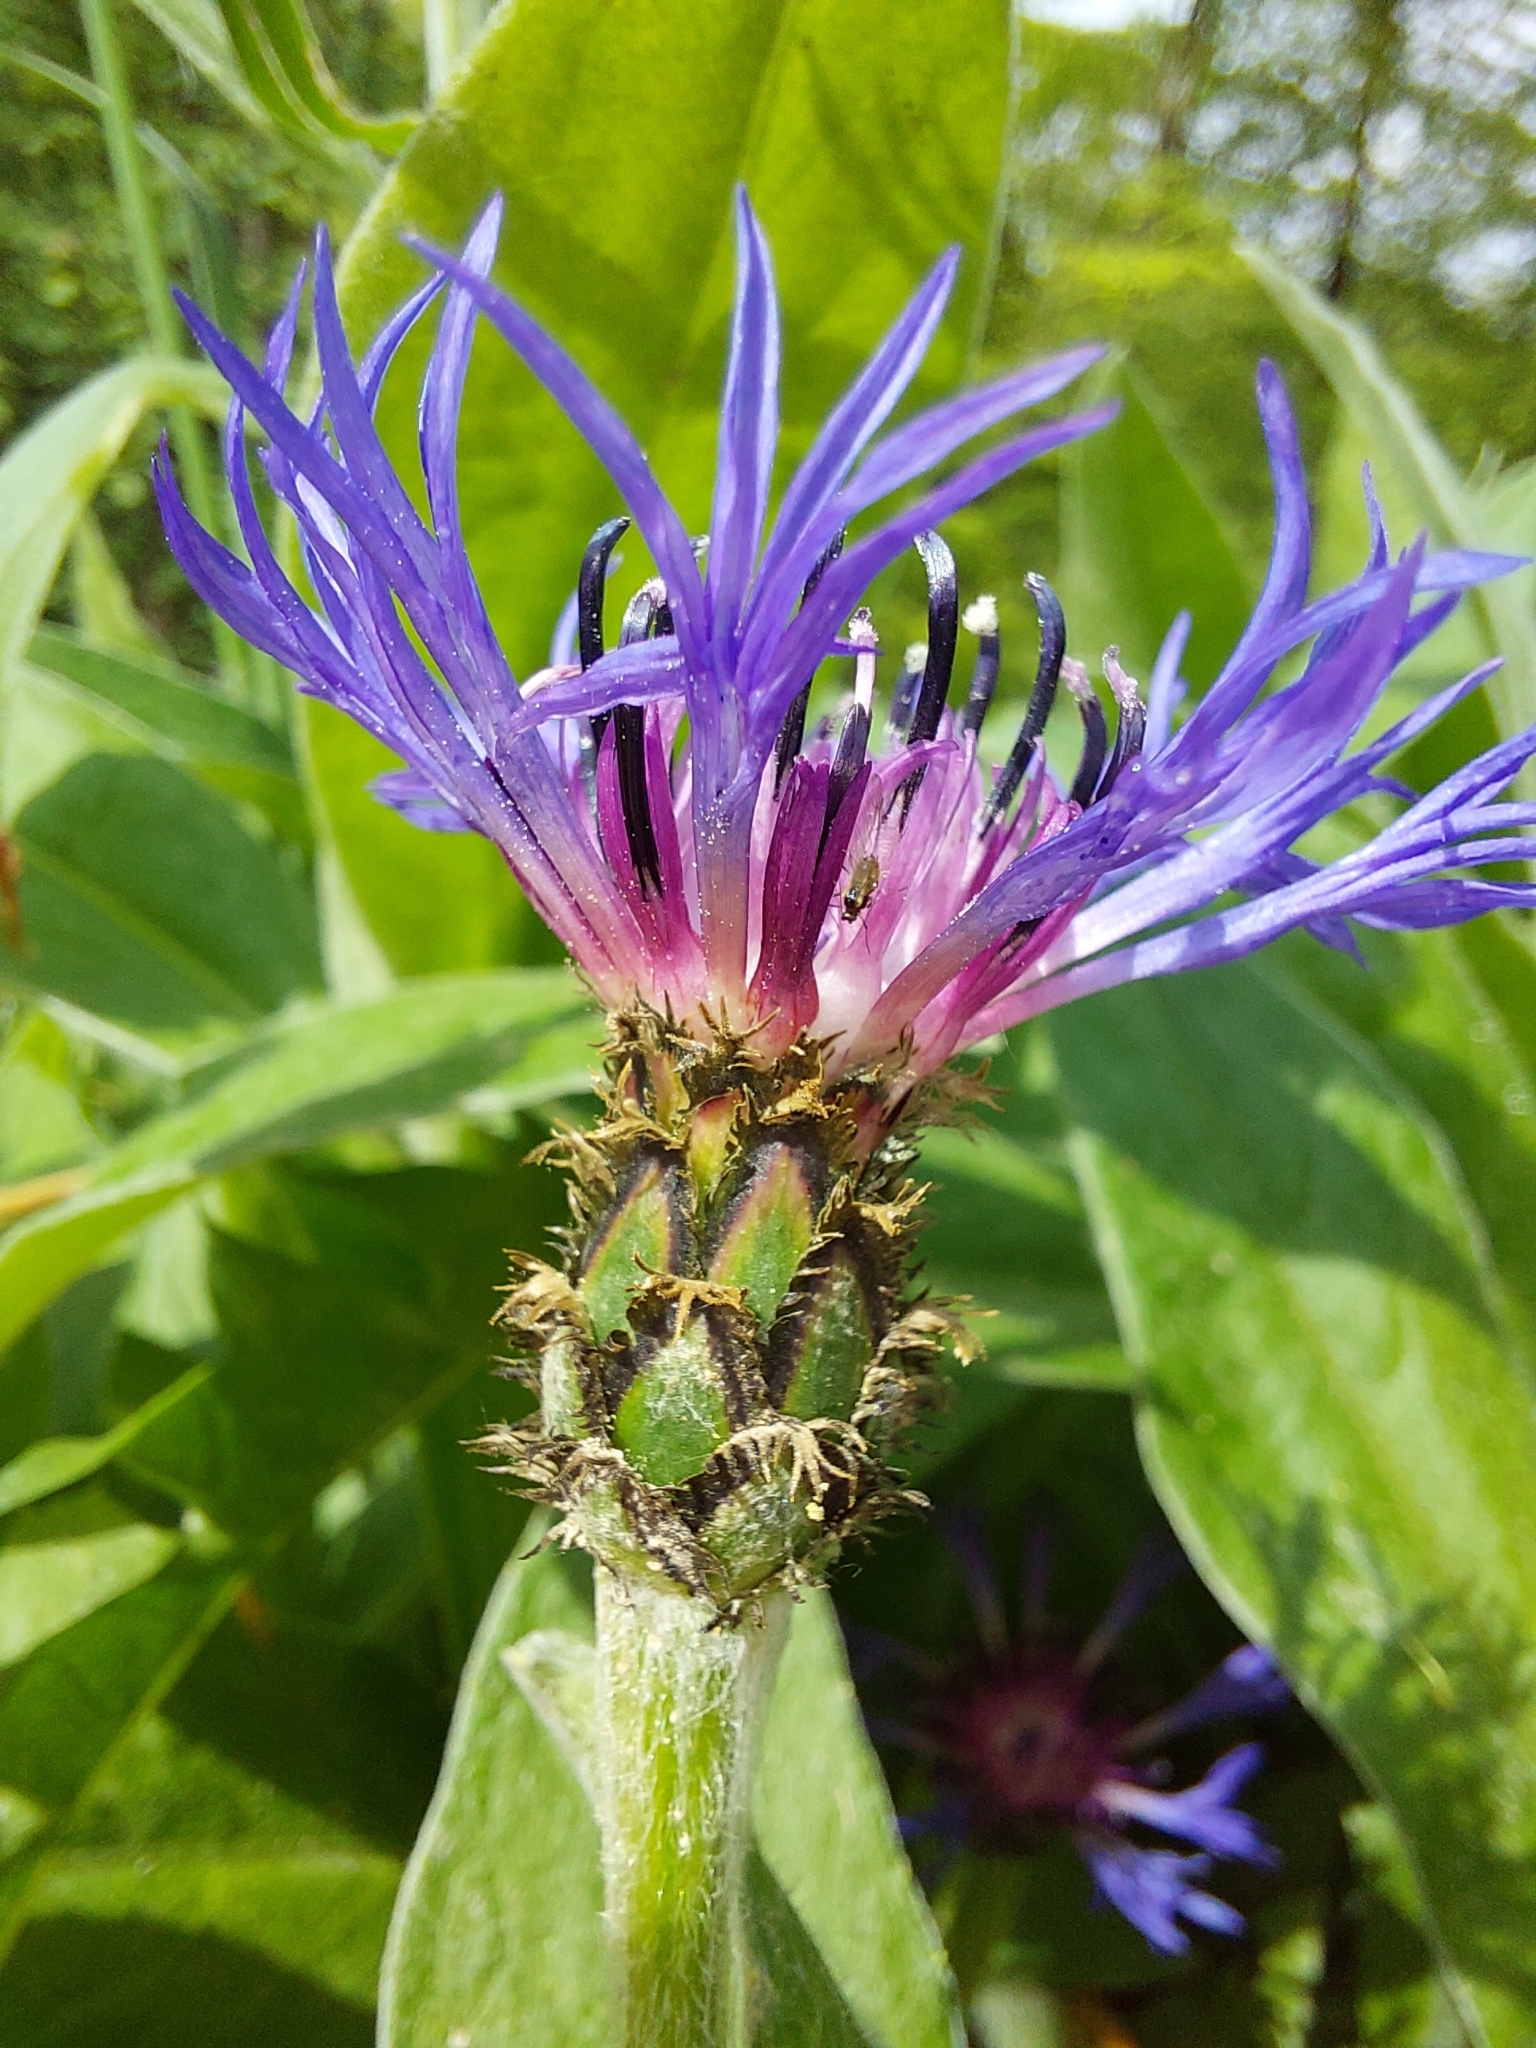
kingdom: Plantae
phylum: Tracheophyta
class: Magnoliopsida
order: Asterales
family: Asteraceae
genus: Centaurea
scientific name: Centaurea montana
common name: Perennial cornflower
